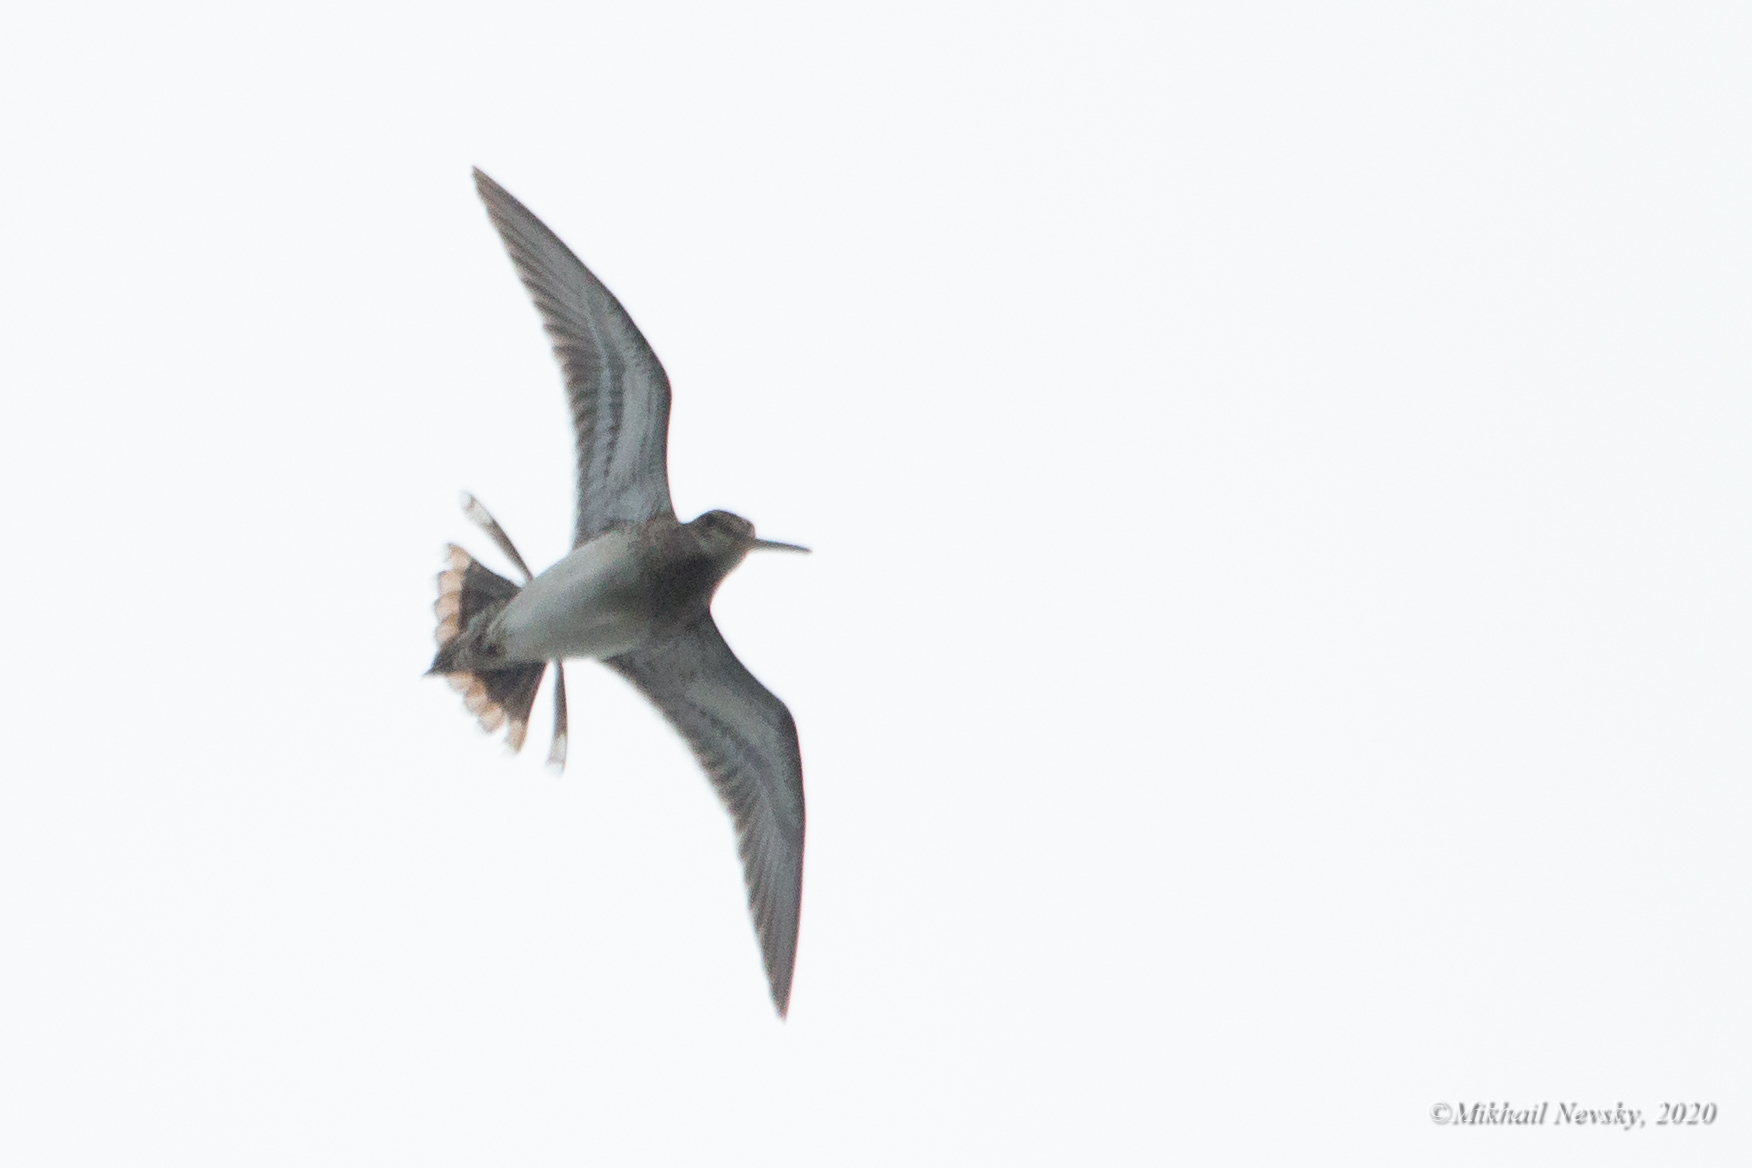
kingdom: Animalia
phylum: Chordata
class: Aves
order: Charadriiformes
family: Scolopacidae
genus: Gallinago
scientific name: Gallinago gallinago
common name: Common snipe
